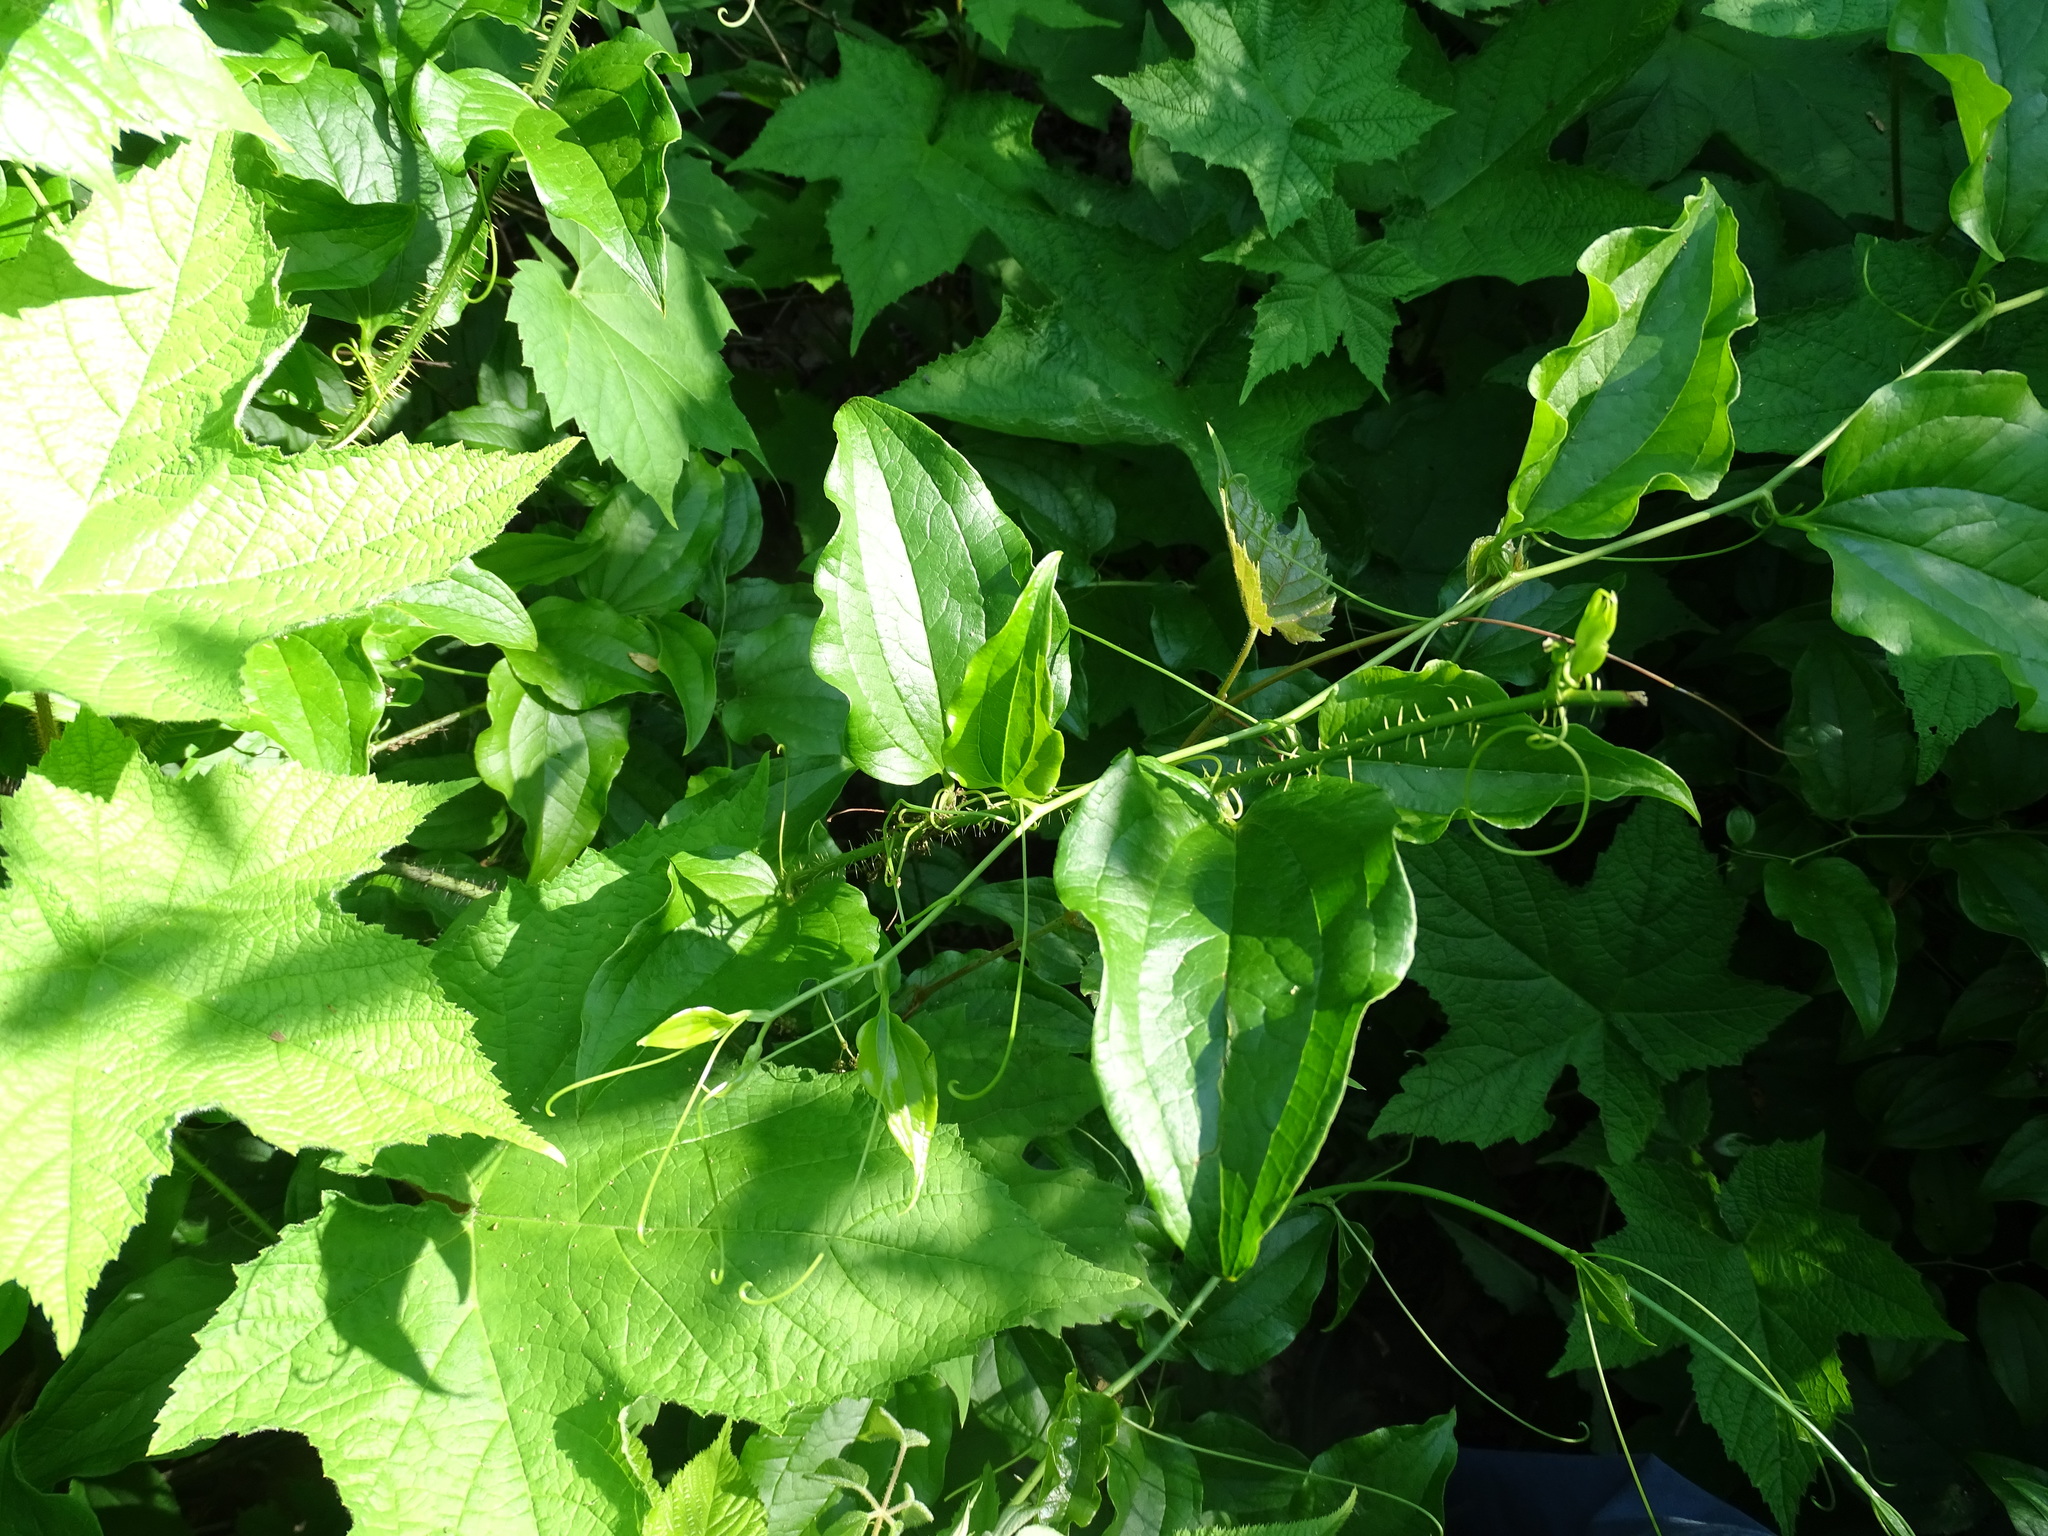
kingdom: Plantae
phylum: Tracheophyta
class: Liliopsida
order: Liliales
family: Smilacaceae
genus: Smilax
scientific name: Smilax tamnoides
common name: Hellfetter
